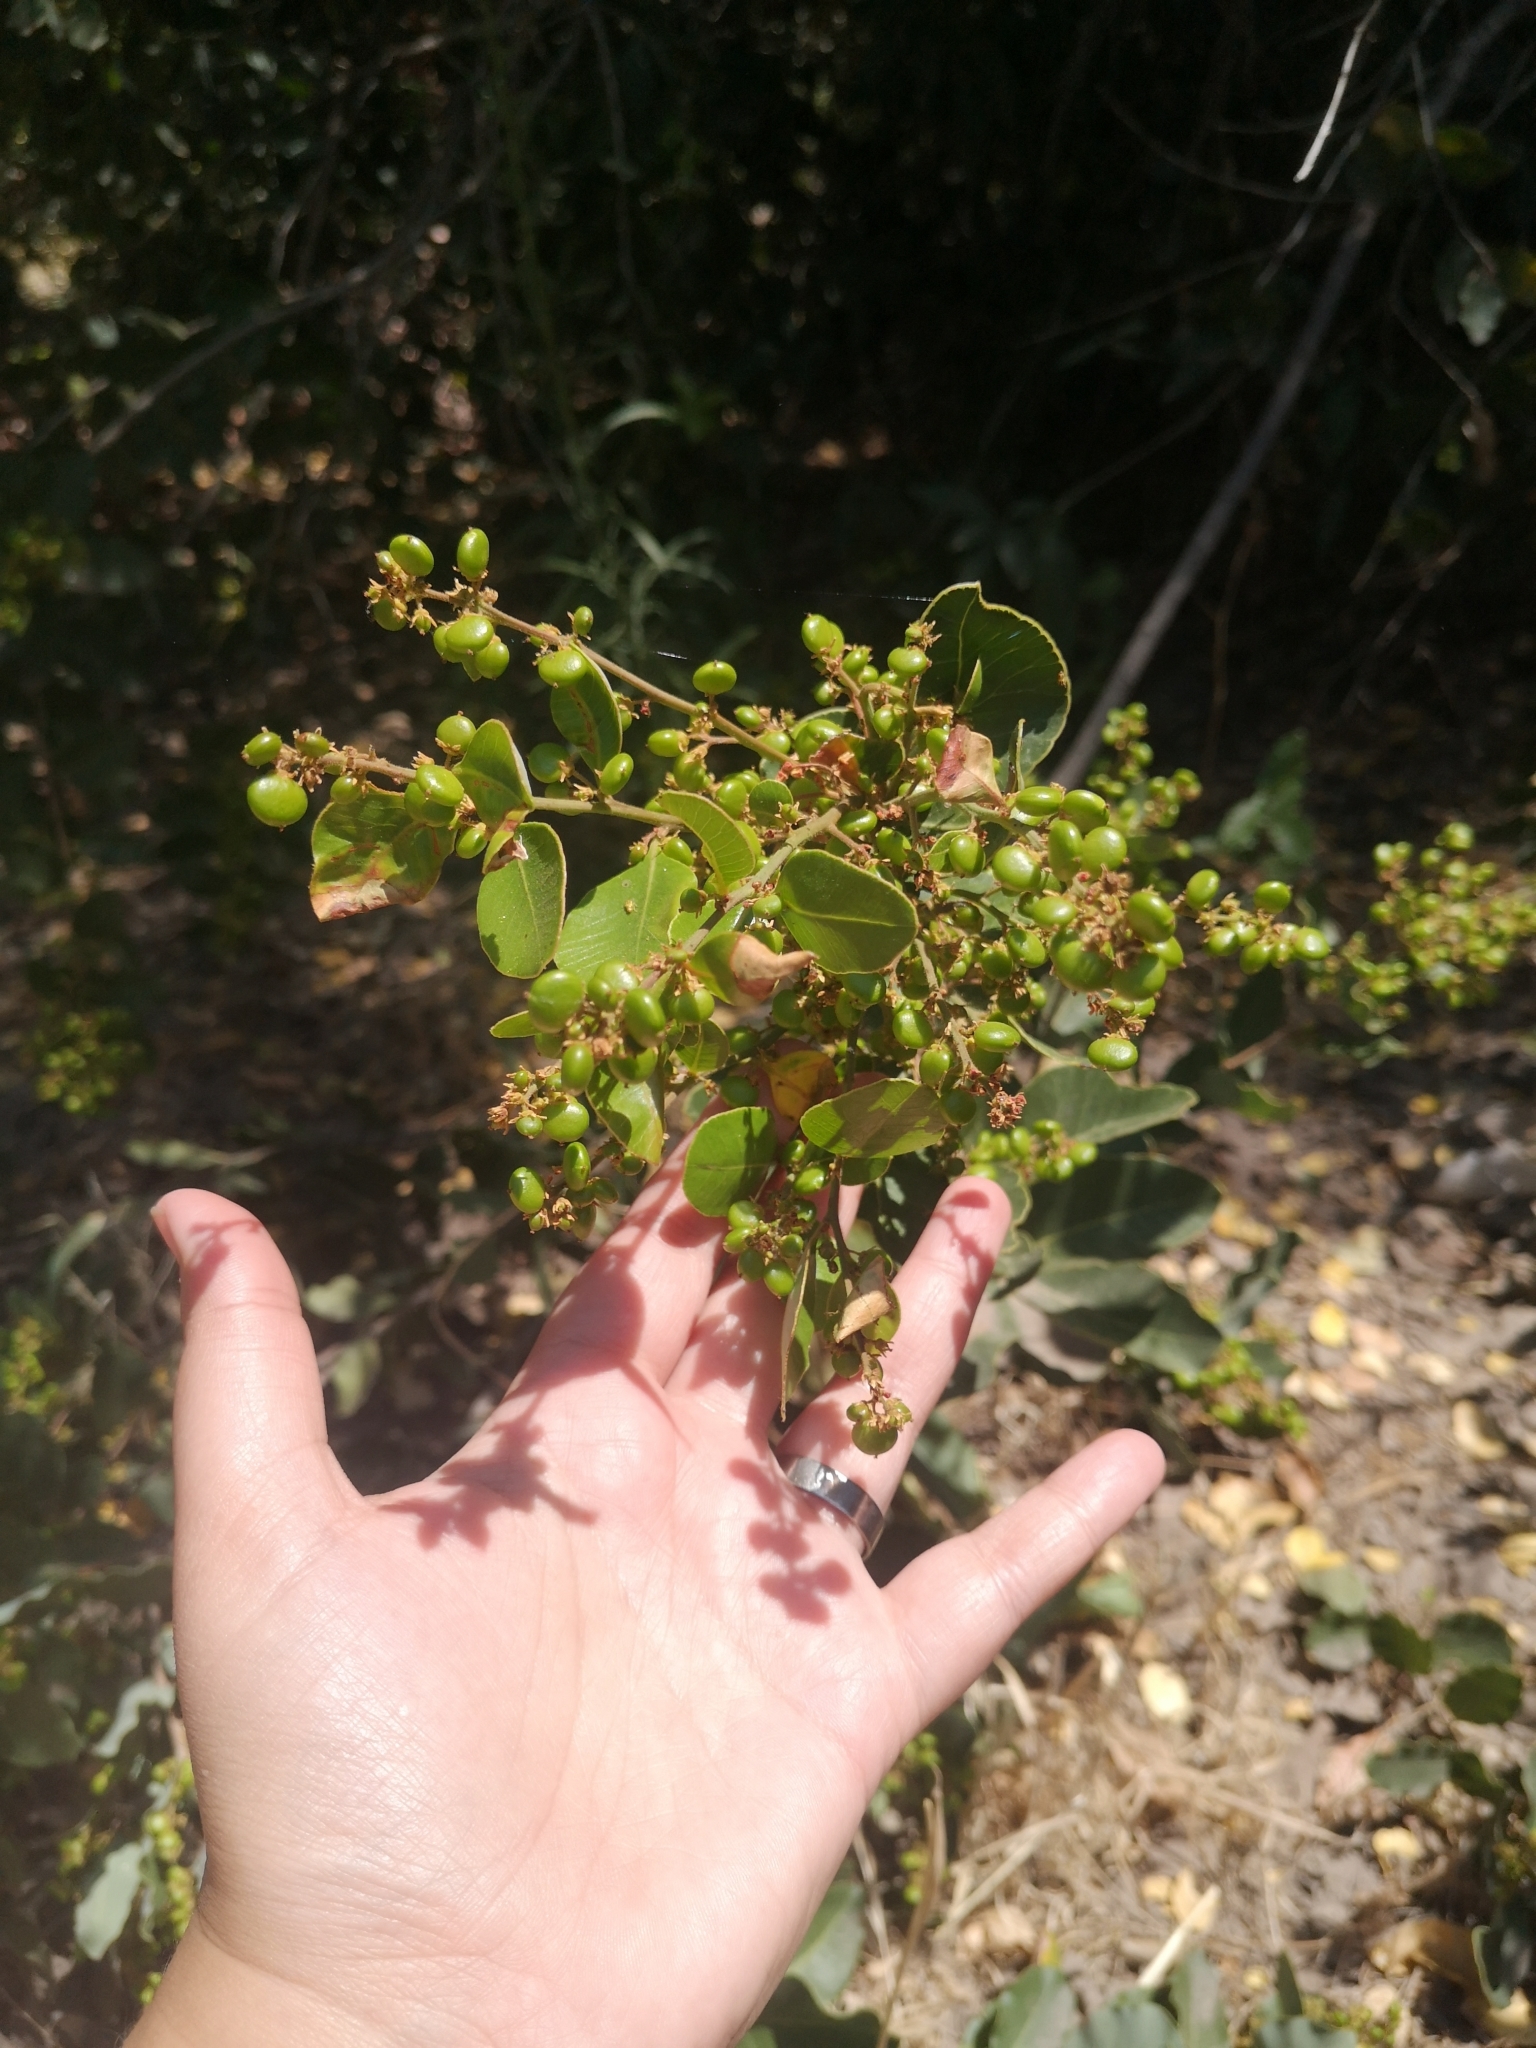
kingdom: Plantae
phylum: Tracheophyta
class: Magnoliopsida
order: Sapindales
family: Anacardiaceae
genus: Lithraea
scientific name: Lithraea caustica
